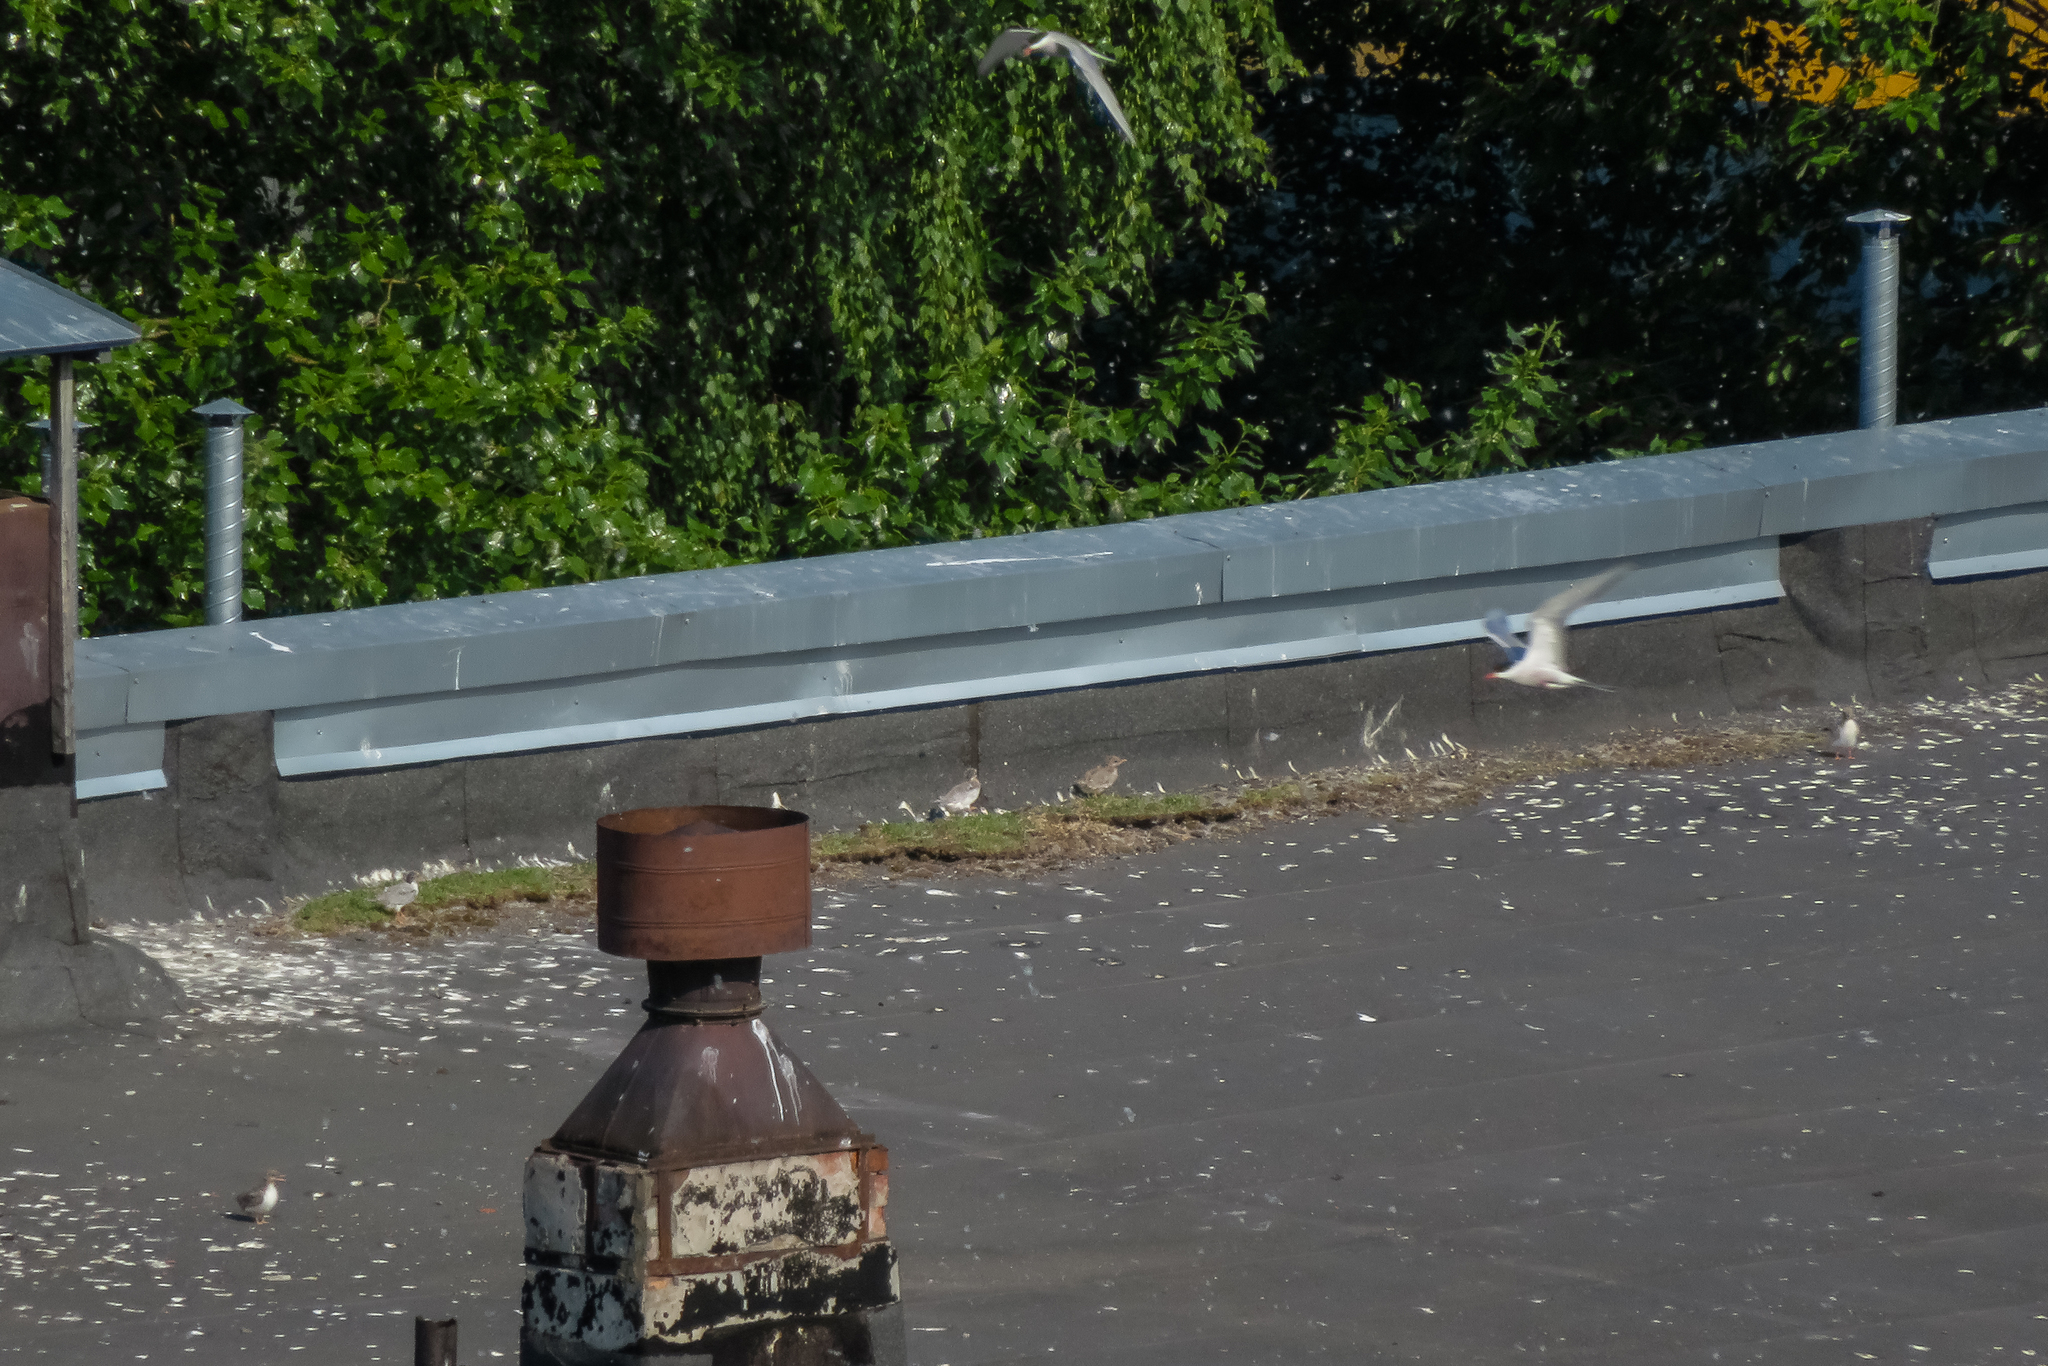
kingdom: Animalia
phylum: Chordata
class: Aves
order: Charadriiformes
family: Laridae
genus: Sterna
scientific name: Sterna hirundo
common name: Common tern
